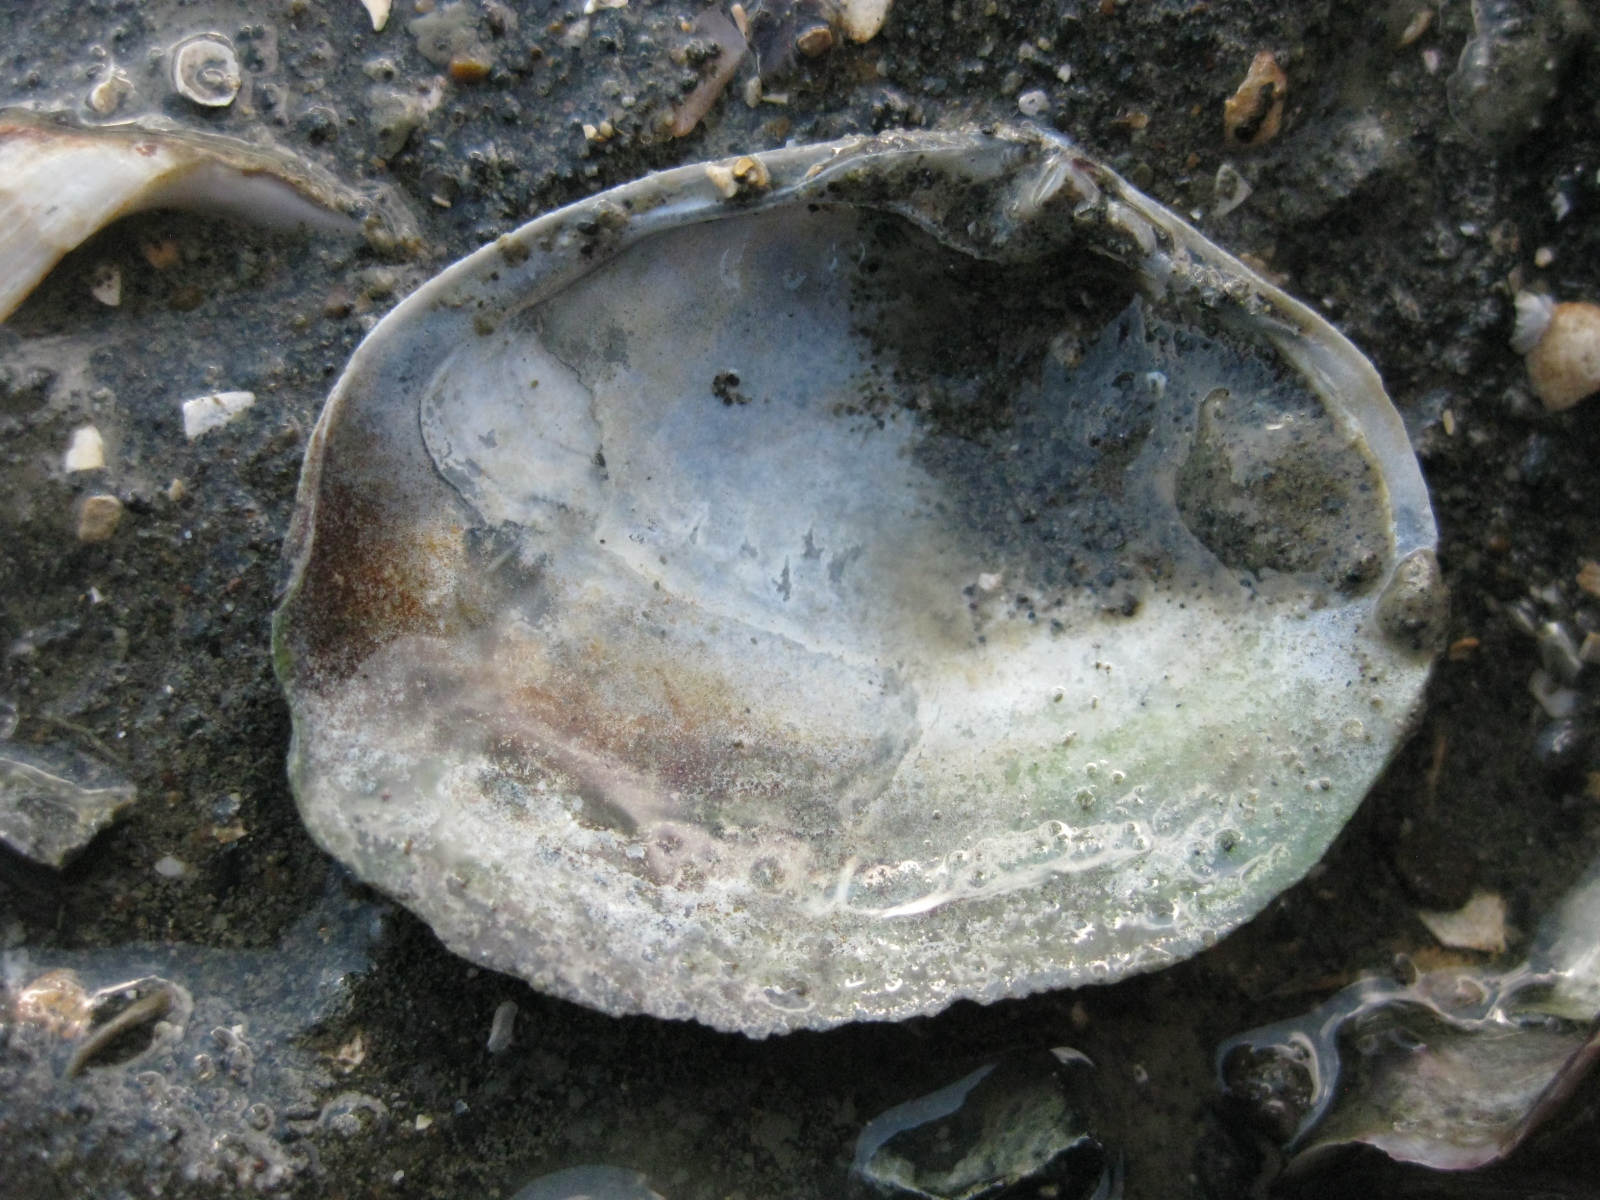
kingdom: Animalia
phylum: Mollusca
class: Bivalvia
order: Venerida
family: Mactridae
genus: Cyclomactra
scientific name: Cyclomactra tristis
